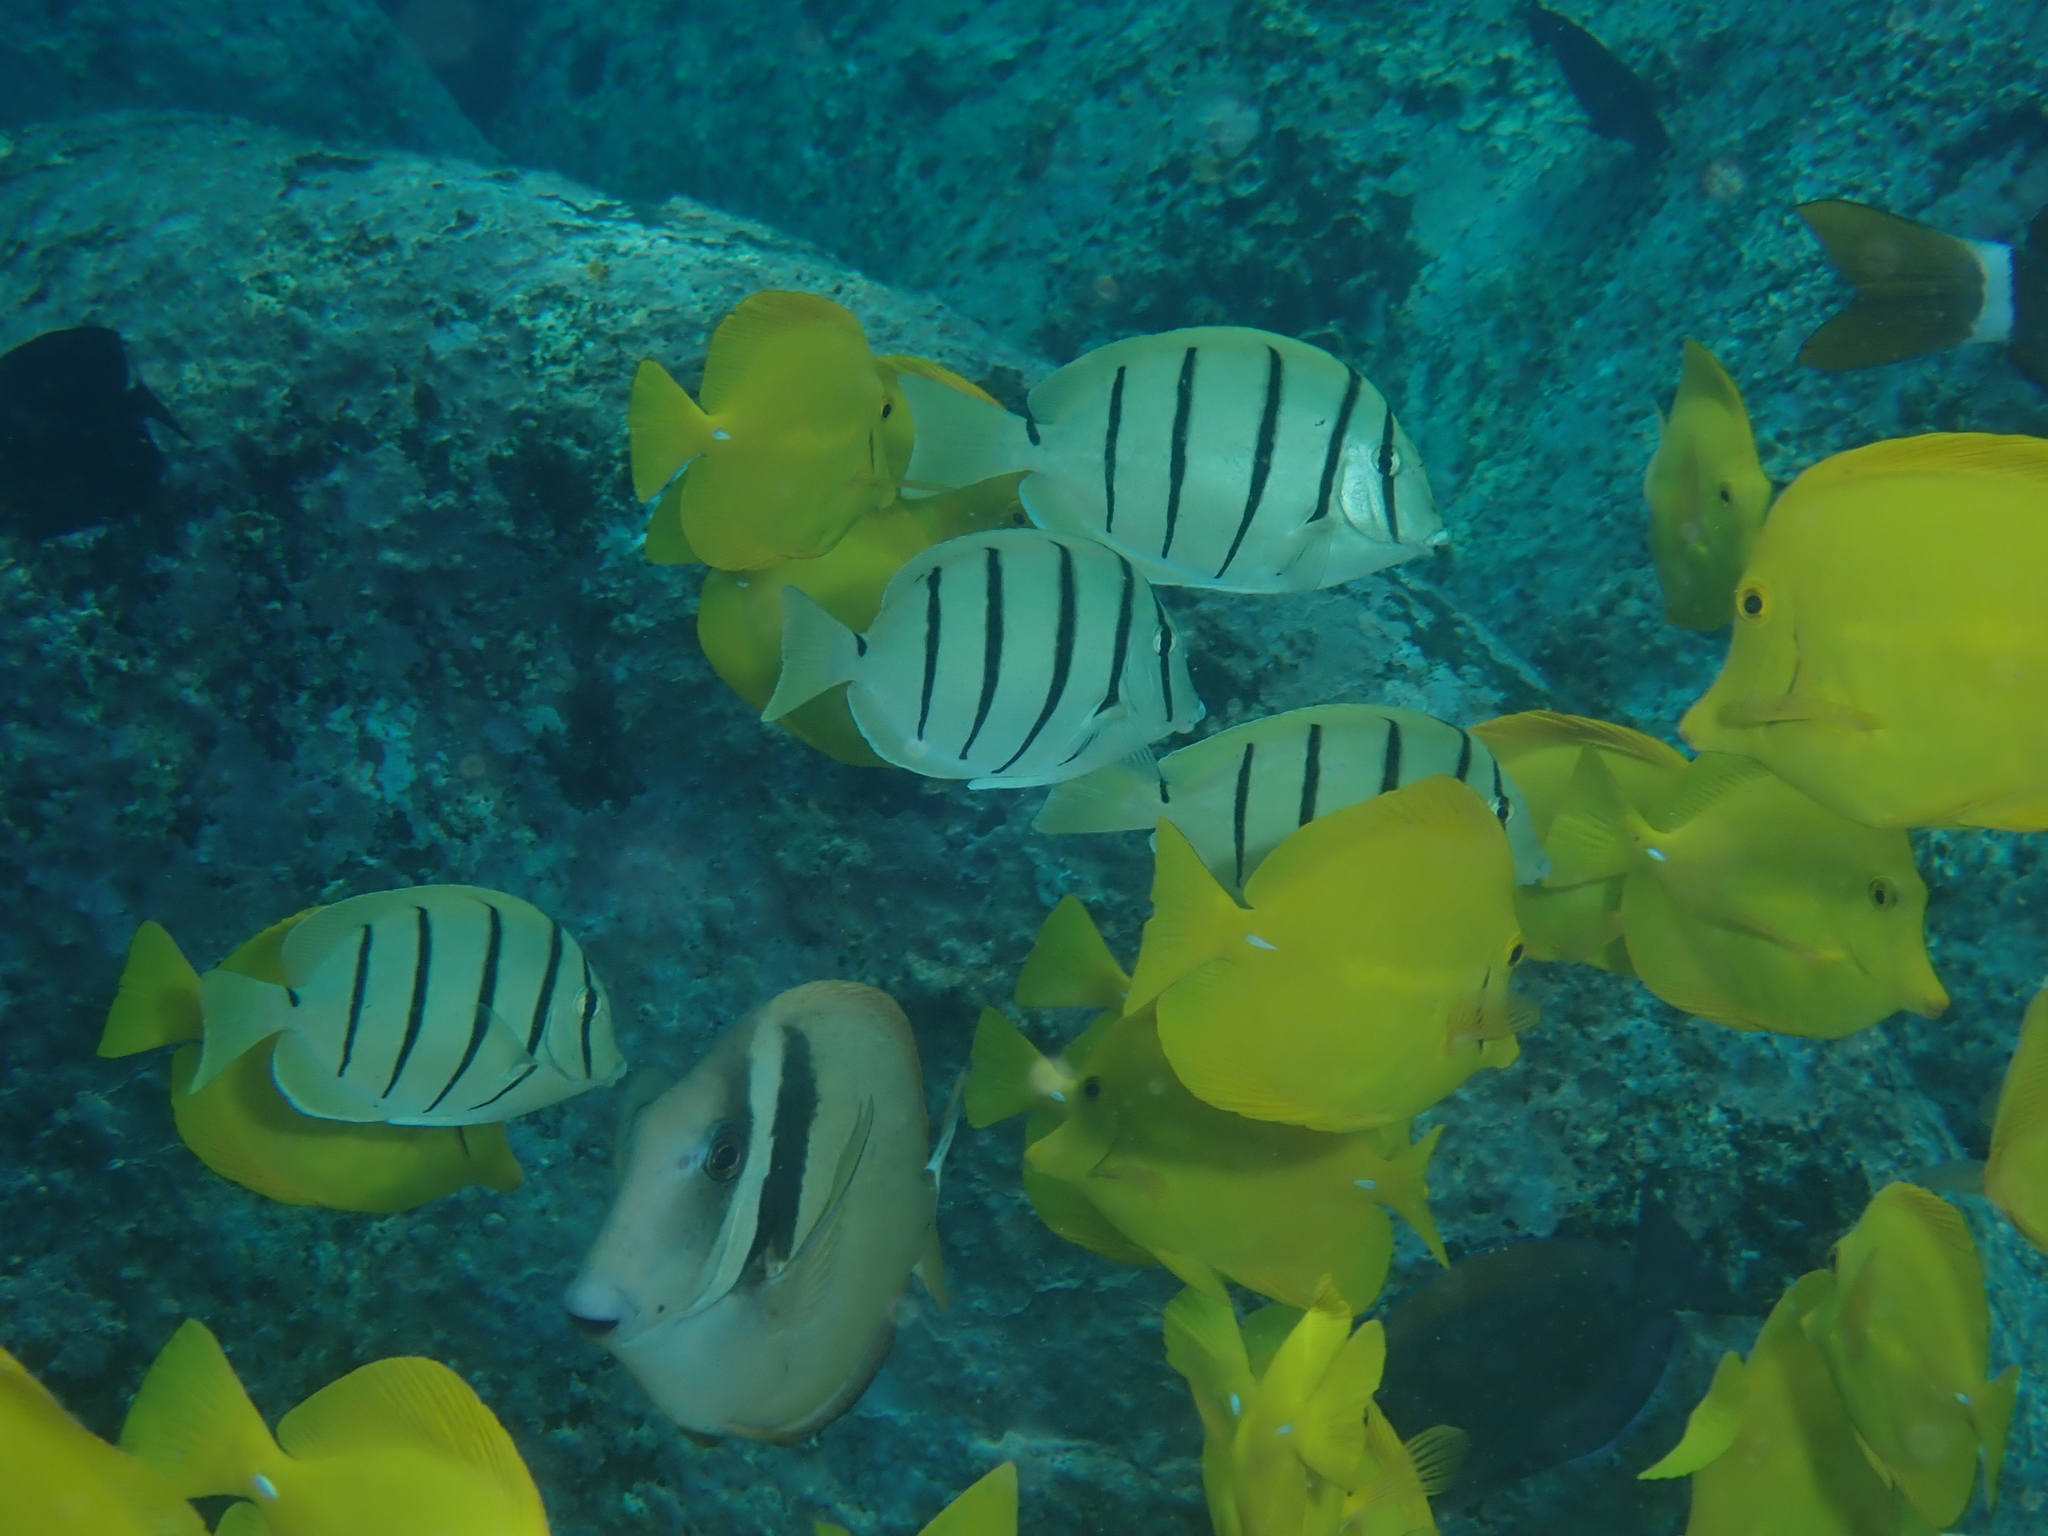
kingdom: Animalia
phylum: Chordata
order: Perciformes
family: Acanthuridae
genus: Acanthurus
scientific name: Acanthurus leucopareius
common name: Head-band surgeonfish
